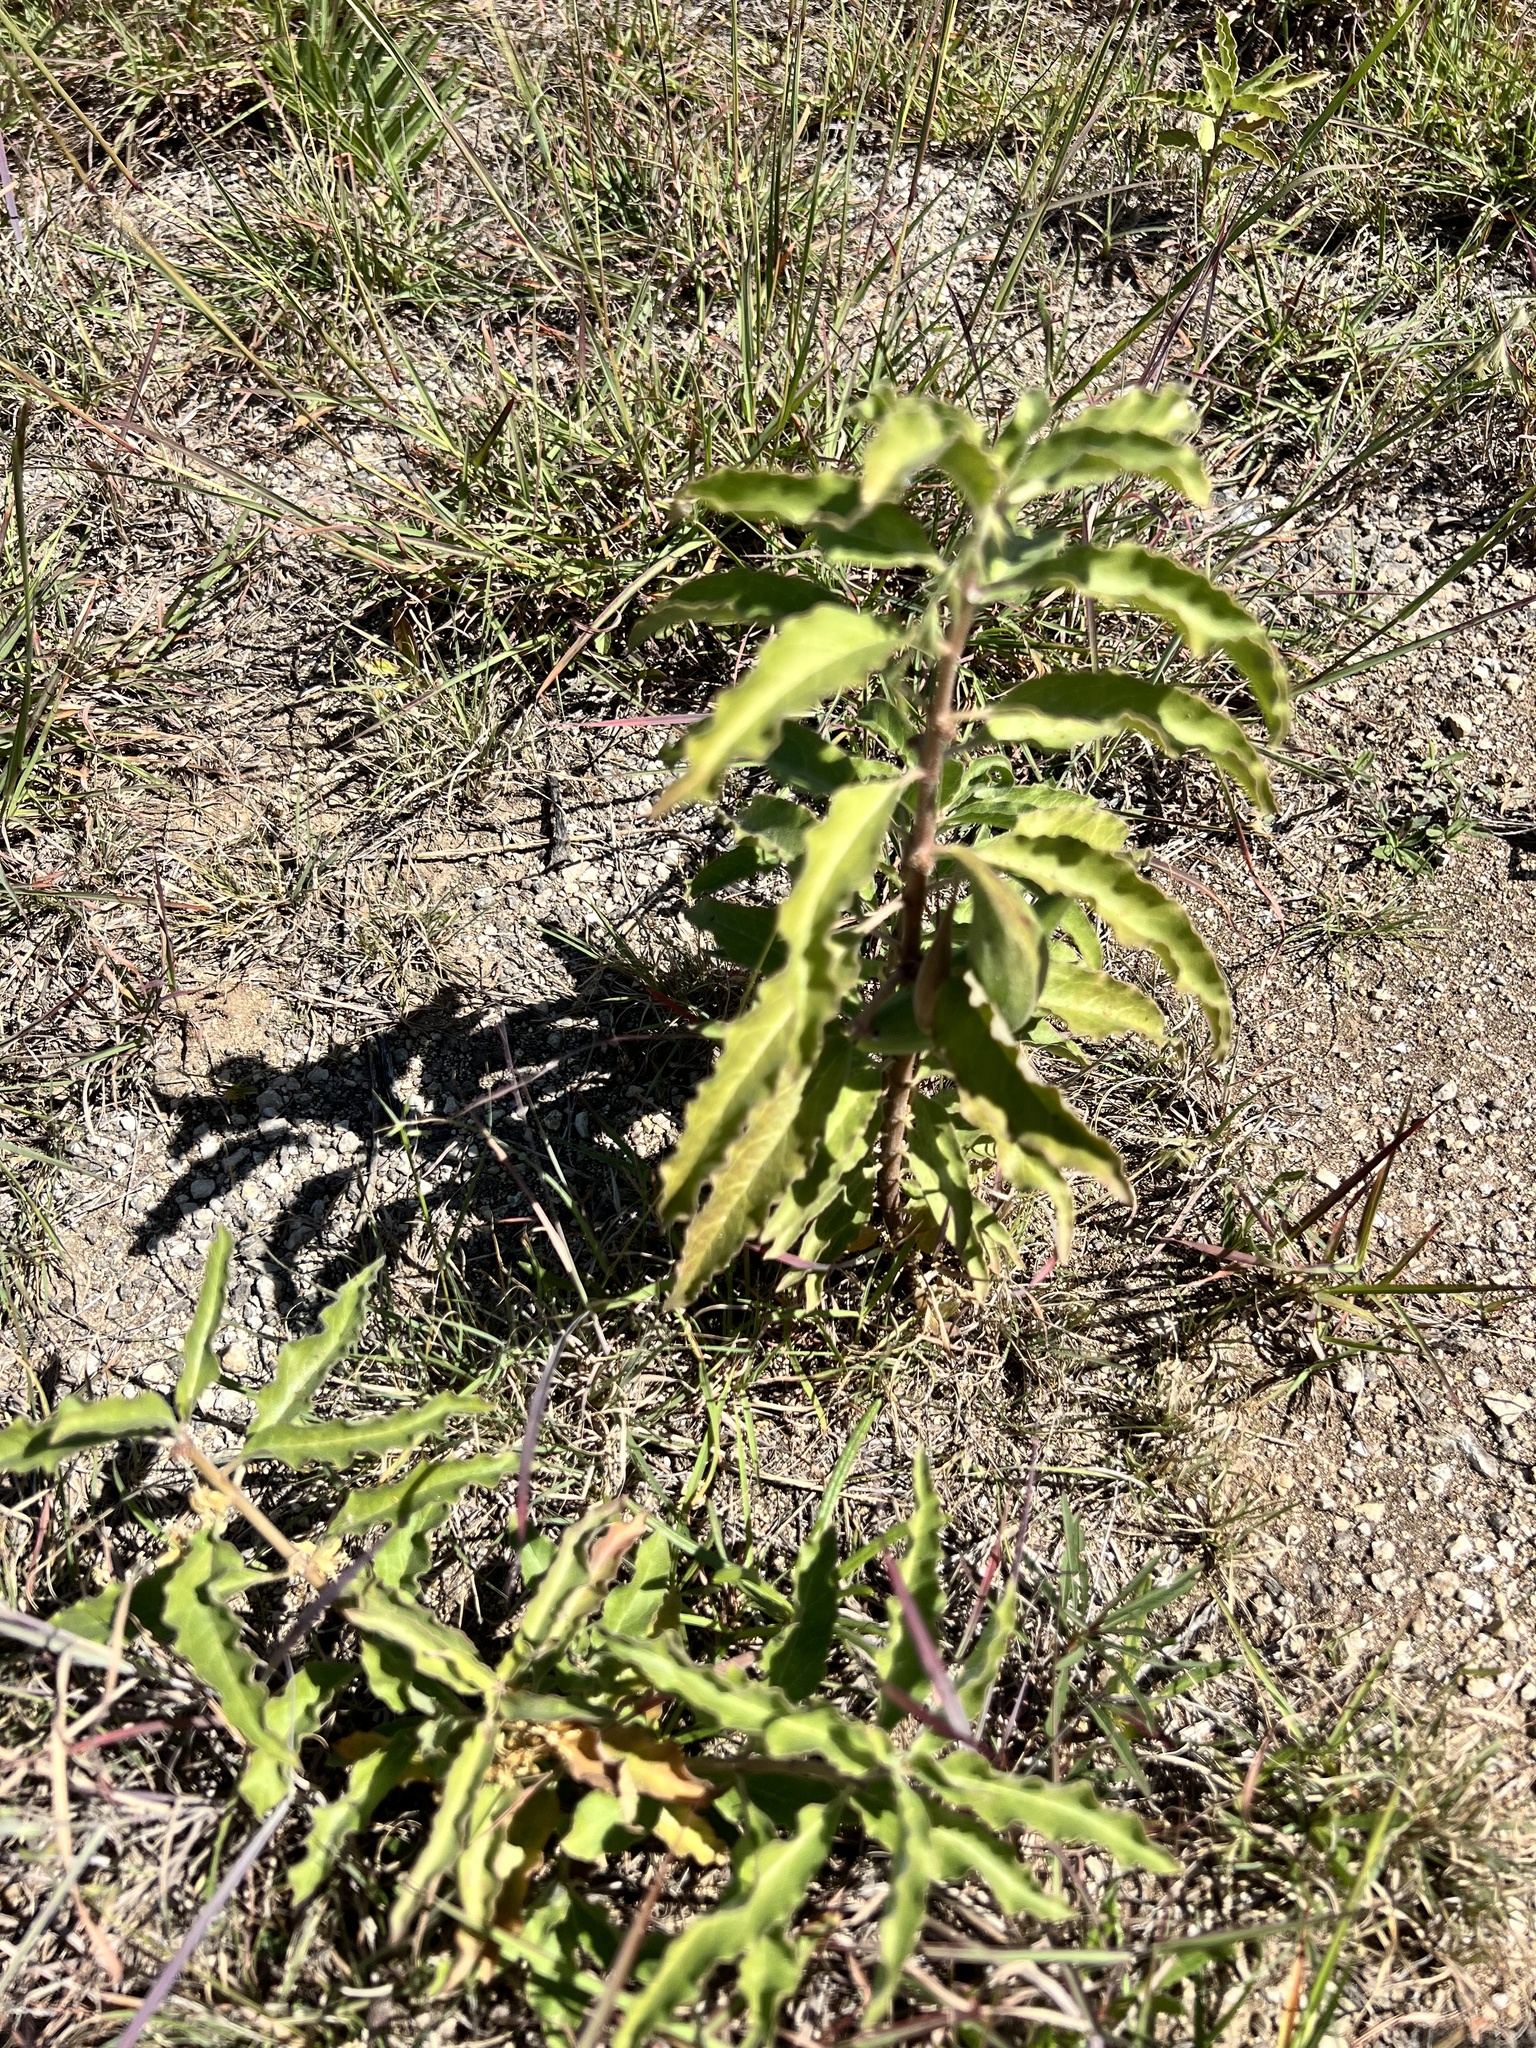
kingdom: Plantae
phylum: Tracheophyta
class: Magnoliopsida
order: Gentianales
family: Apocynaceae
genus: Asclepias
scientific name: Asclepias oenotheroides
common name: Zizotes milkweed
